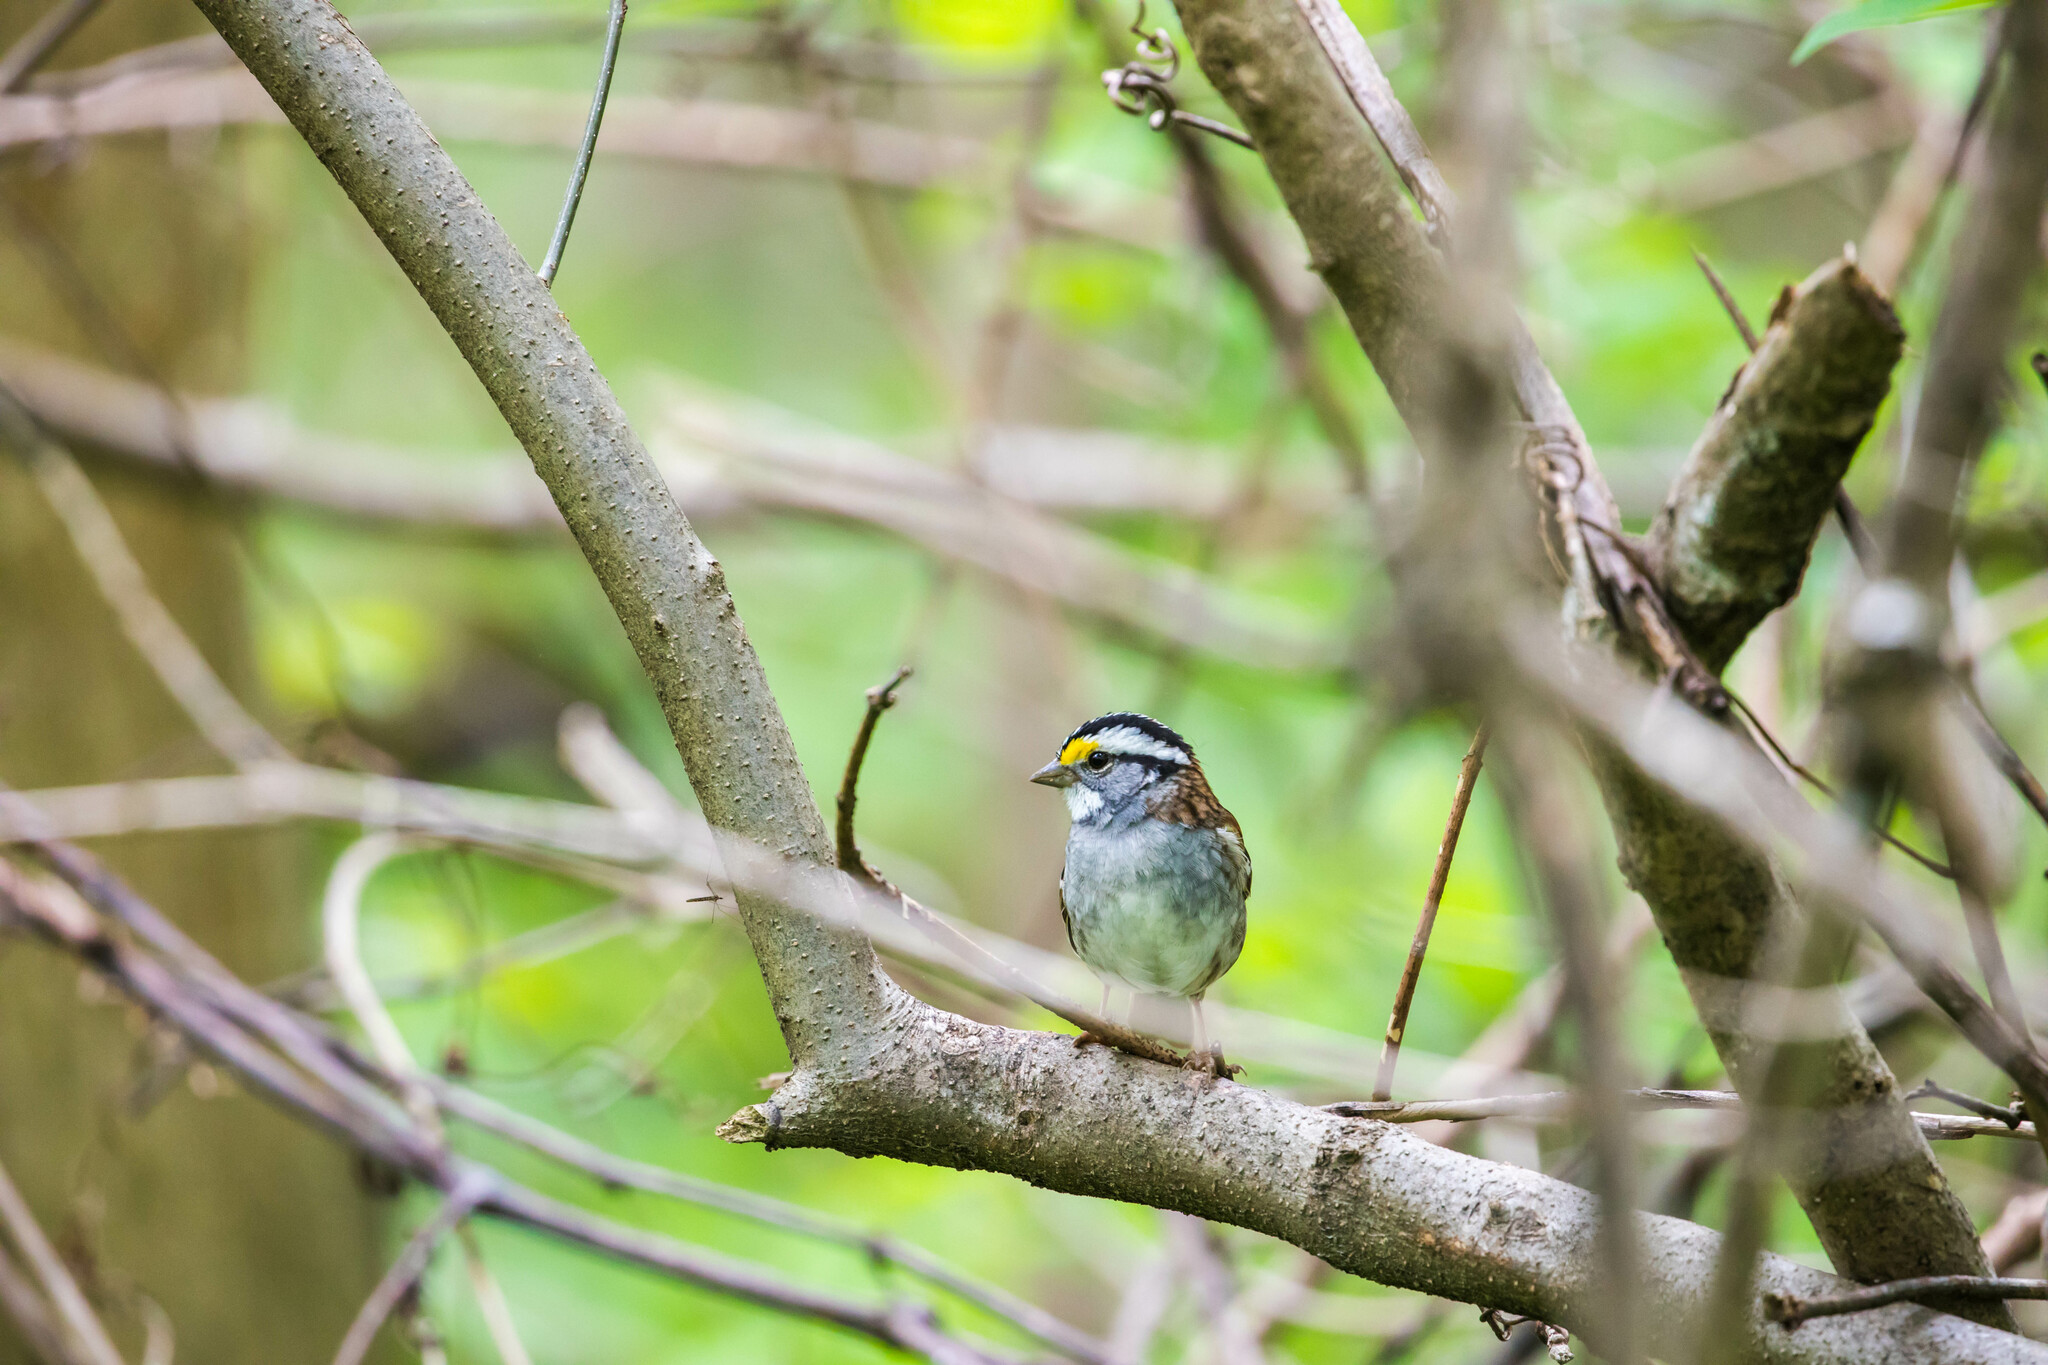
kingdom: Animalia
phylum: Chordata
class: Aves
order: Passeriformes
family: Passerellidae
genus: Zonotrichia
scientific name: Zonotrichia albicollis
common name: White-throated sparrow
